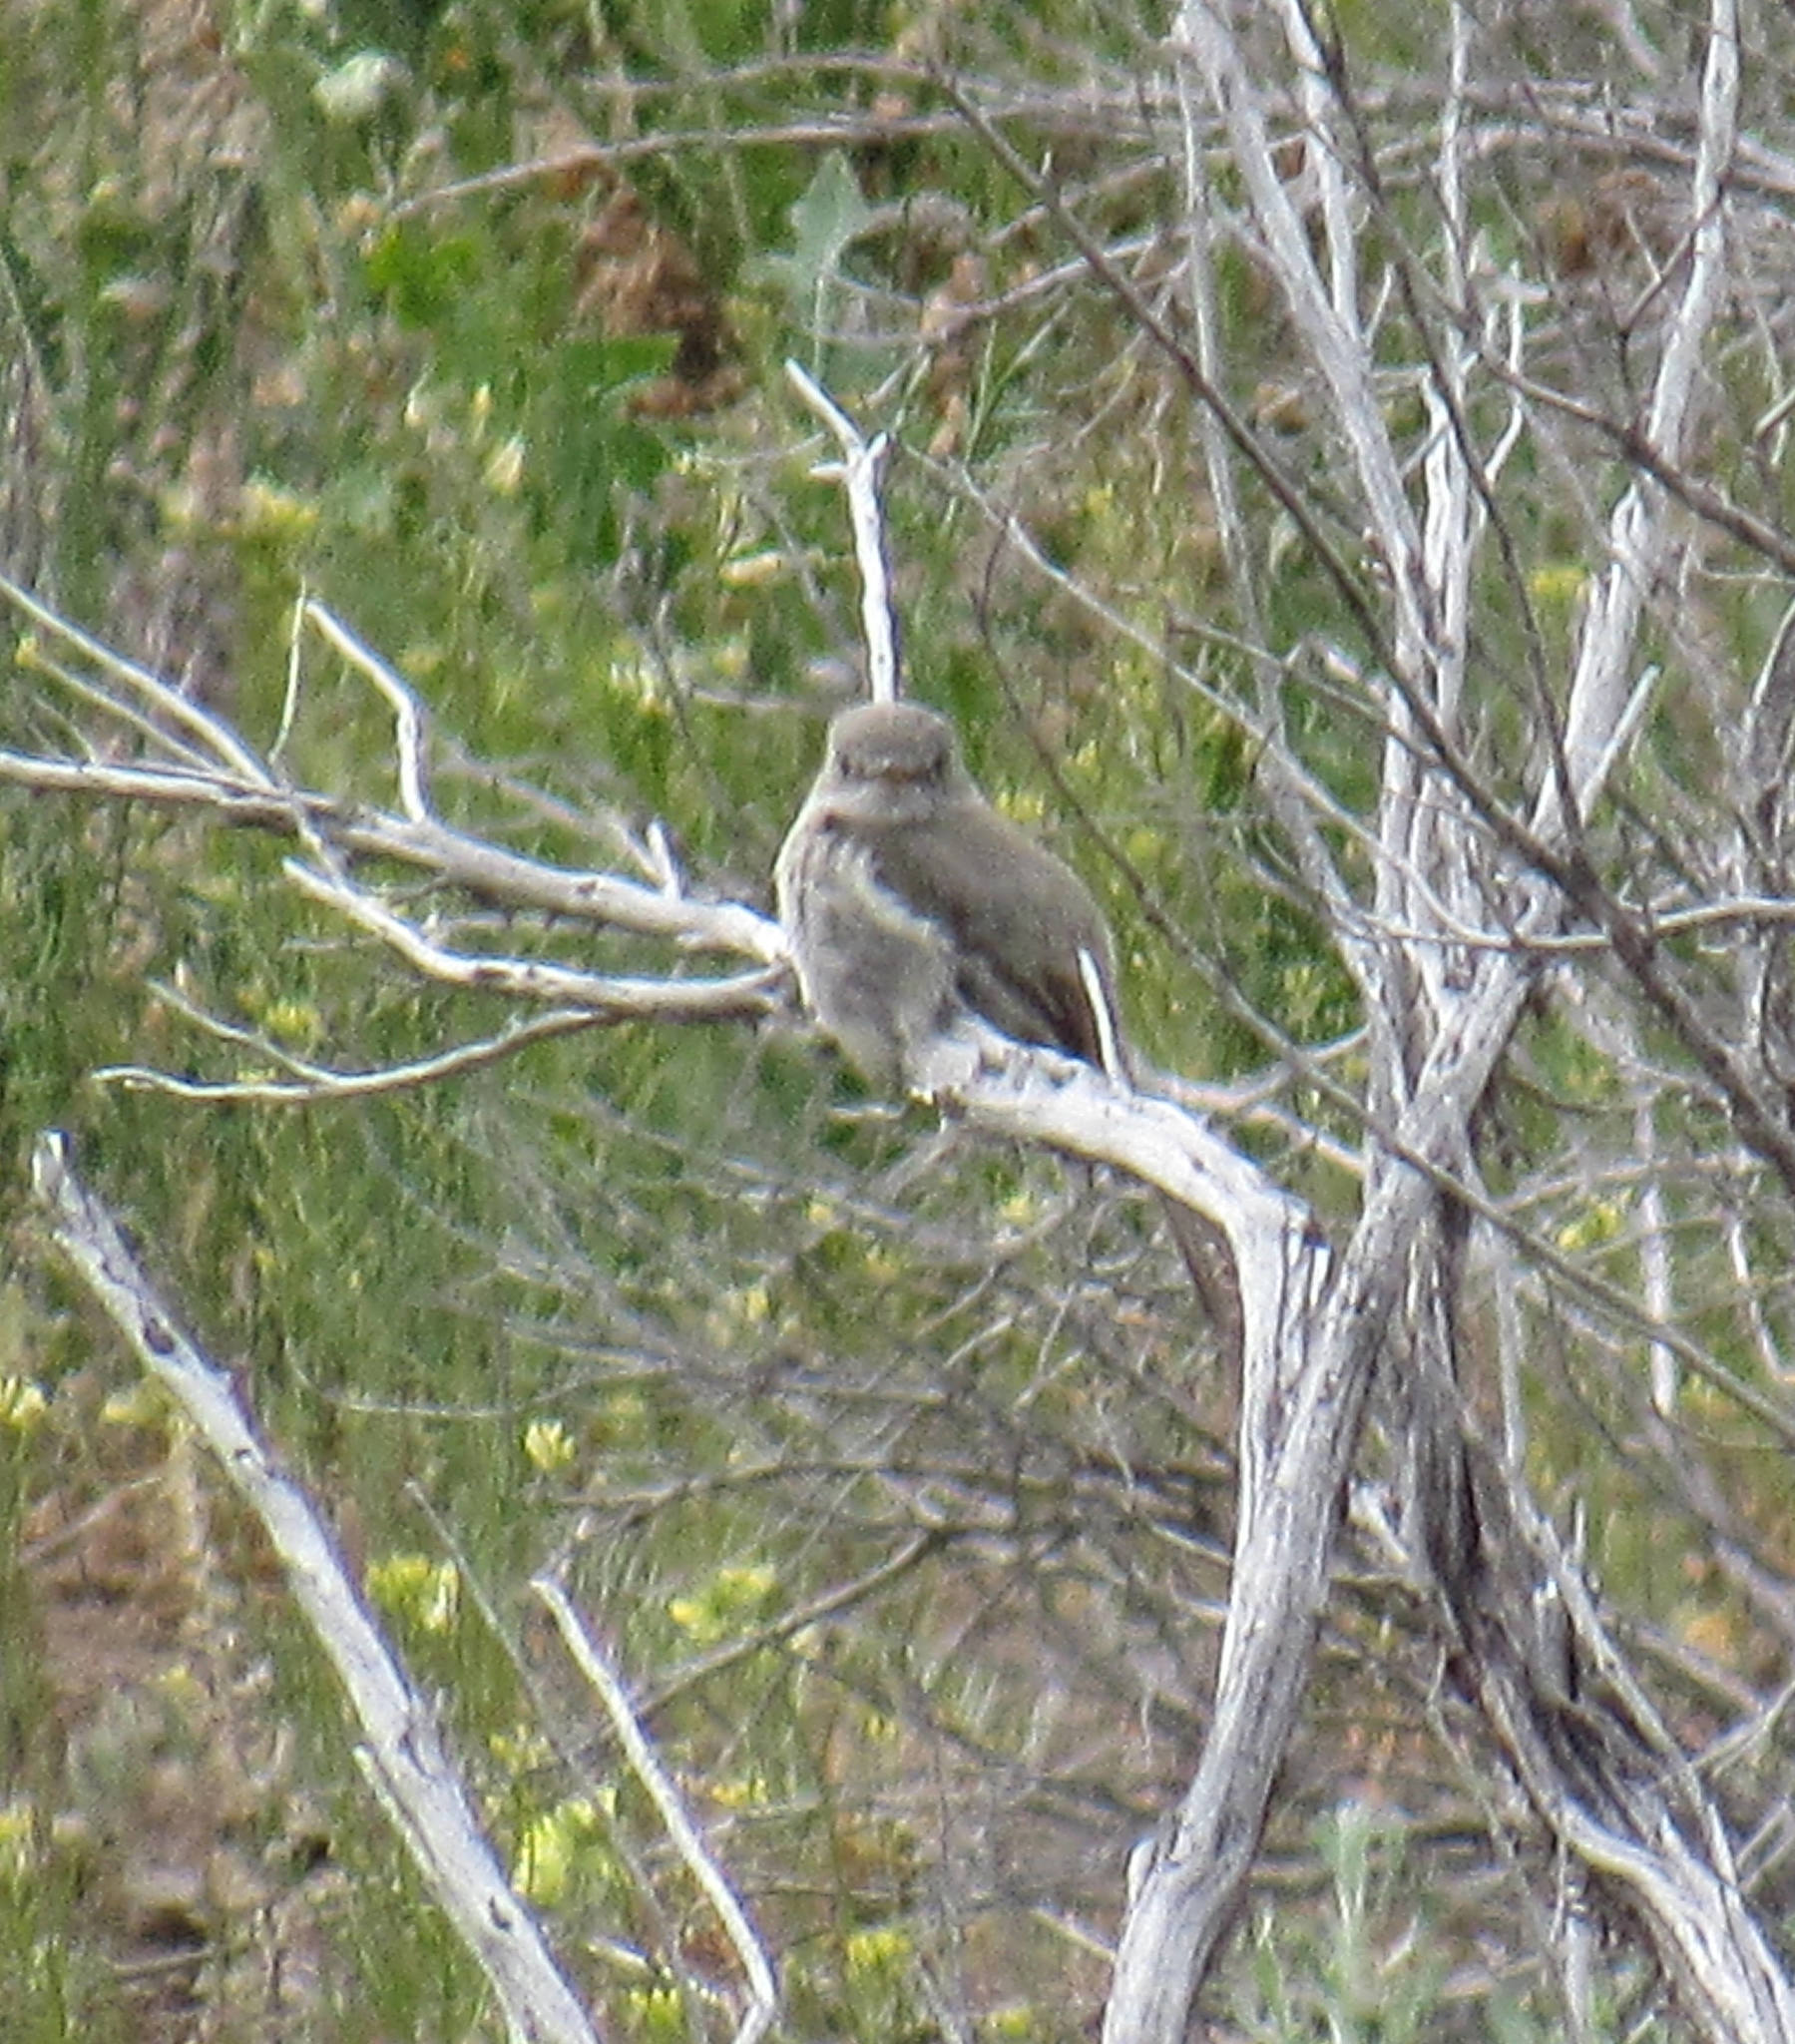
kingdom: Animalia
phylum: Chordata
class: Aves
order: Passeriformes
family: Tyrannidae
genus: Empidonax
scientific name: Empidonax wrightii
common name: Gray flycatcher
